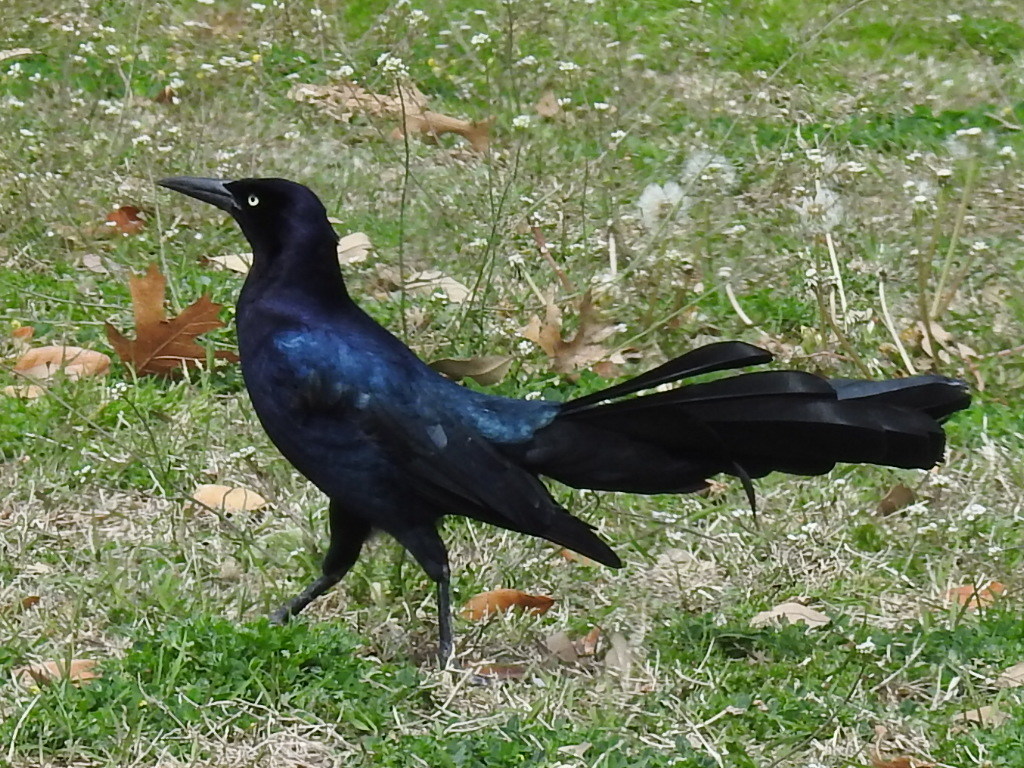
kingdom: Animalia
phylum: Chordata
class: Aves
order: Passeriformes
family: Icteridae
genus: Quiscalus
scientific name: Quiscalus mexicanus
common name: Great-tailed grackle
